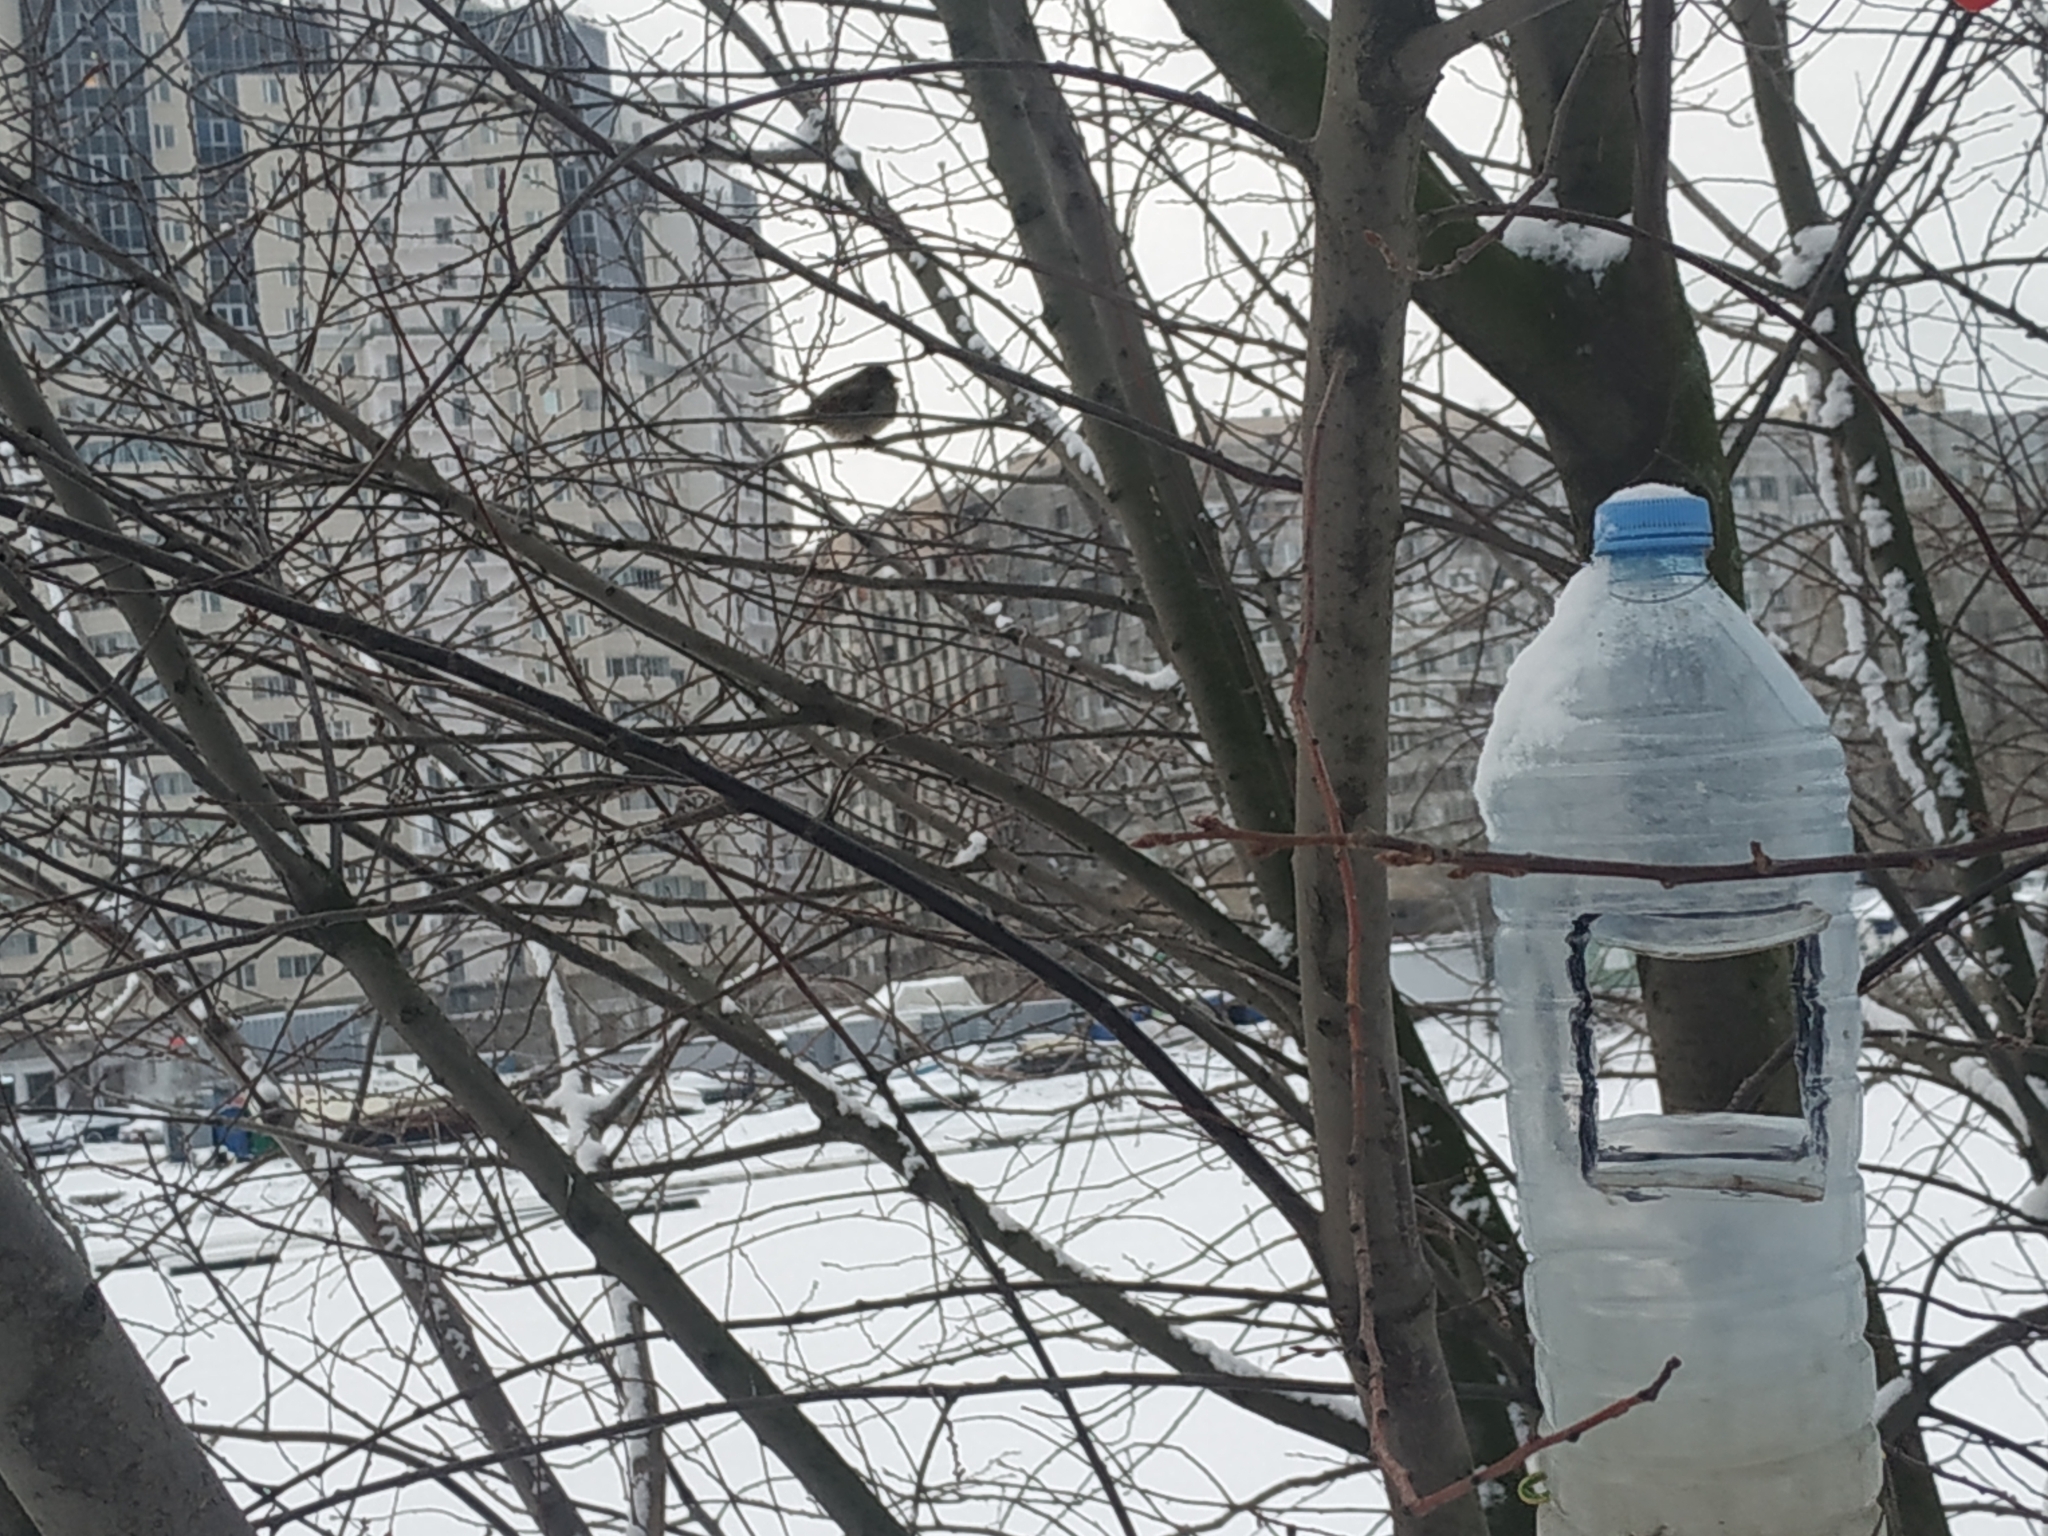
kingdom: Animalia
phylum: Chordata
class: Aves
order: Passeriformes
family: Passeridae
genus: Passer
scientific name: Passer domesticus
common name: House sparrow
